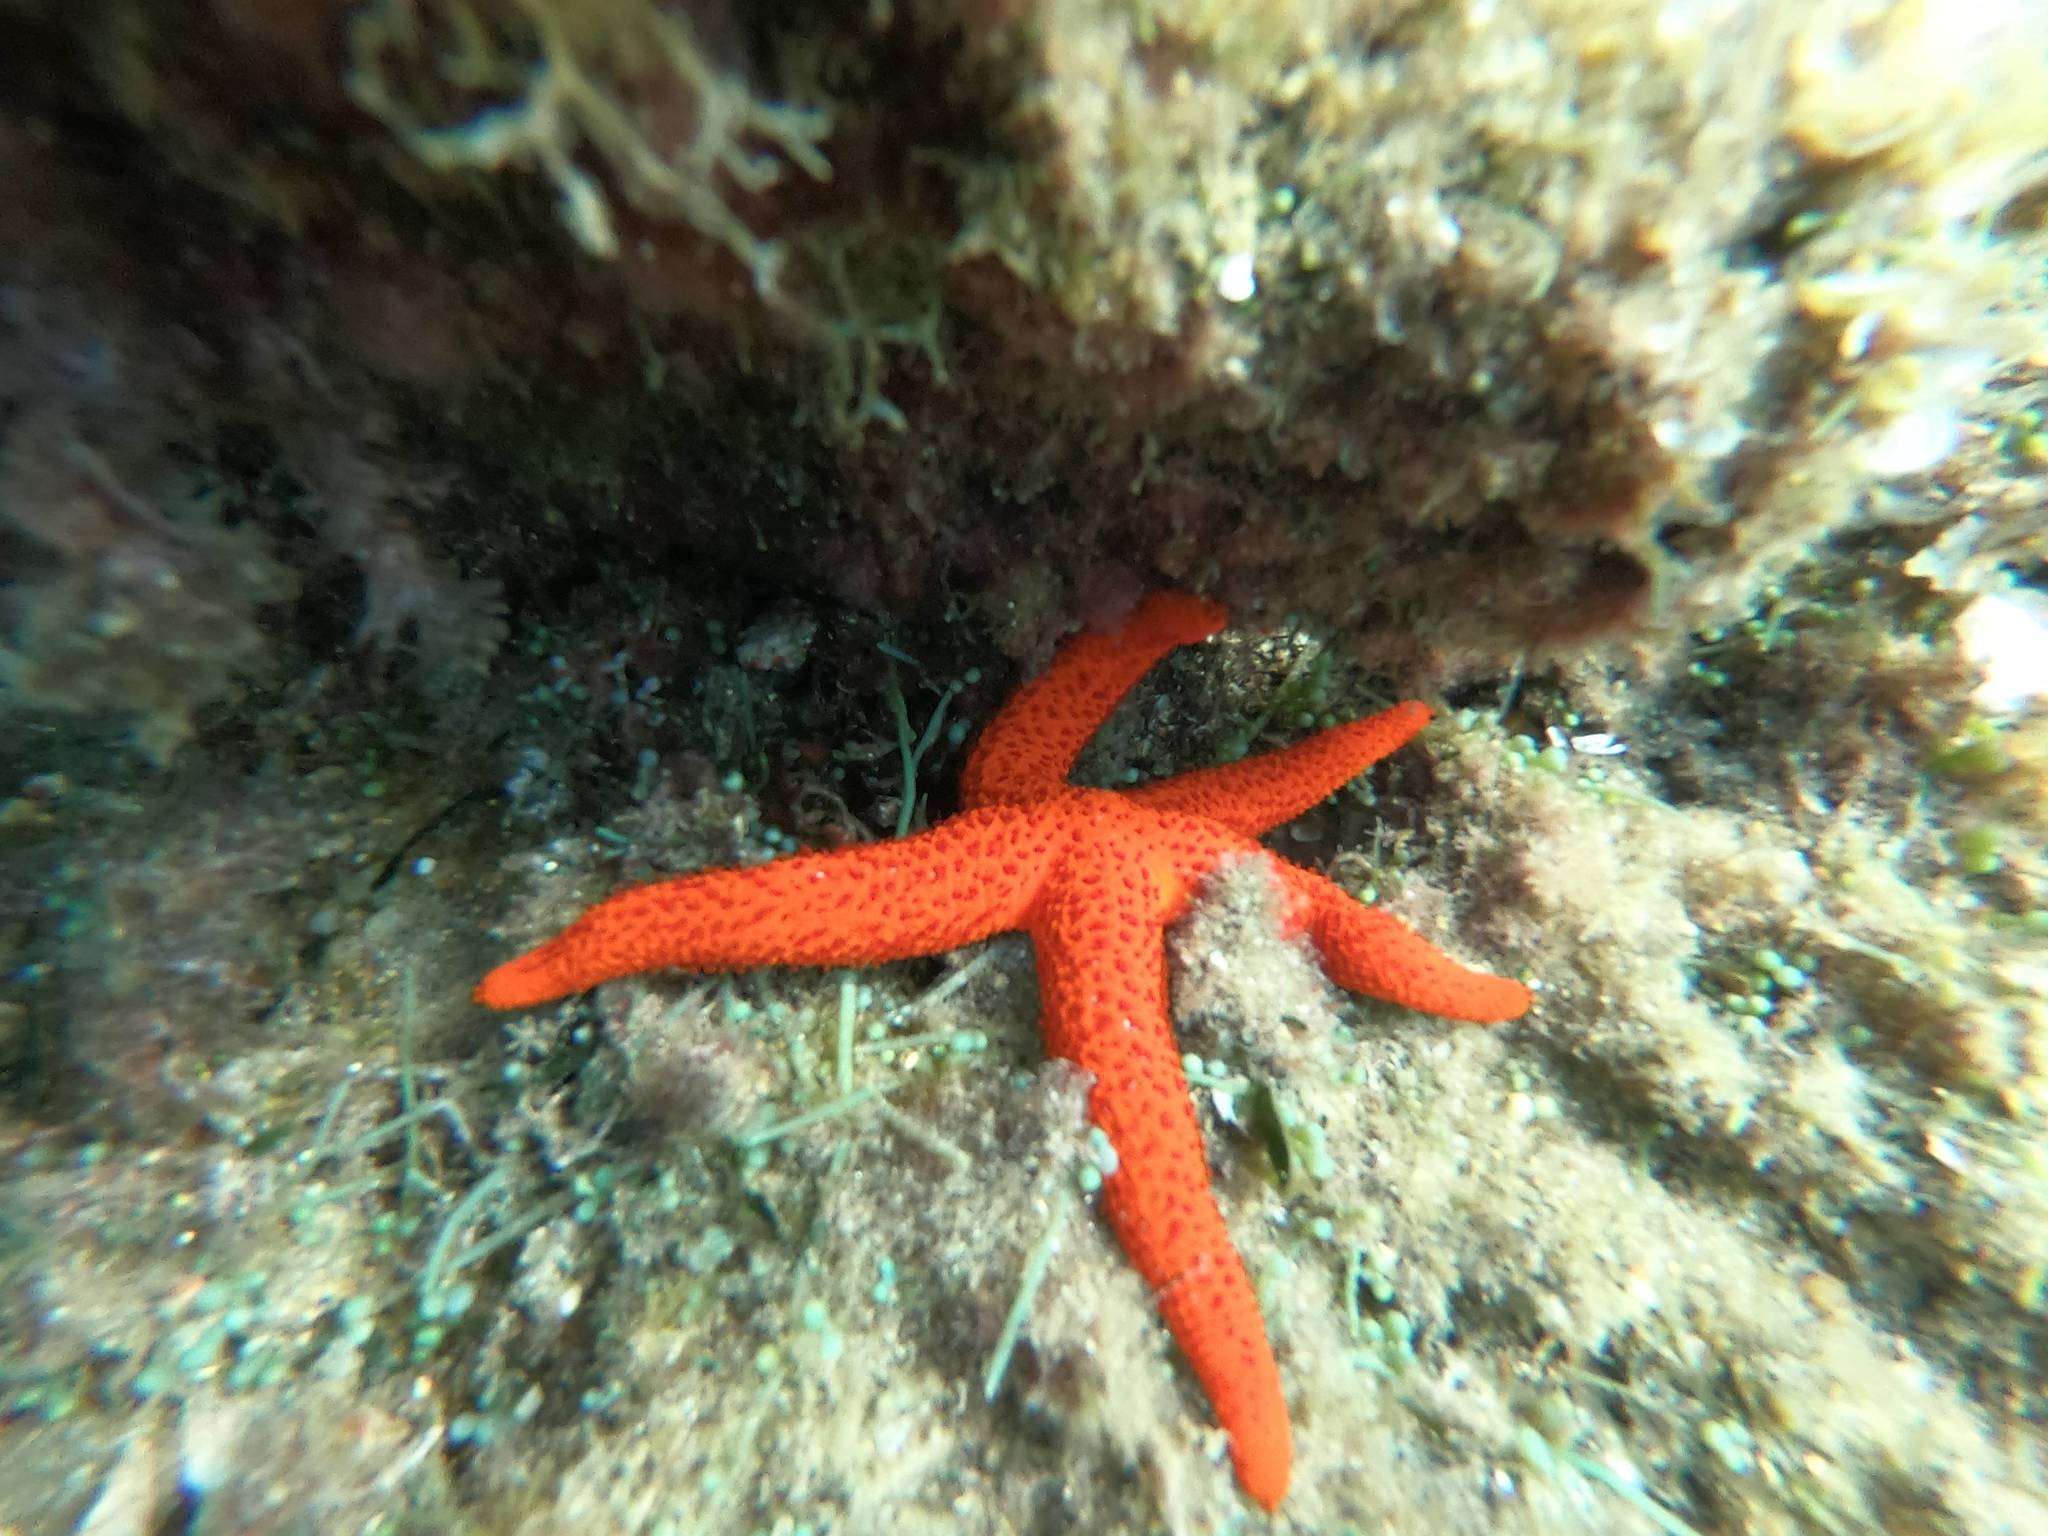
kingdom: Animalia
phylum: Echinodermata
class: Asteroidea
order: Spinulosida
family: Echinasteridae
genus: Echinaster
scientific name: Echinaster sepositus
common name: Red starfish
